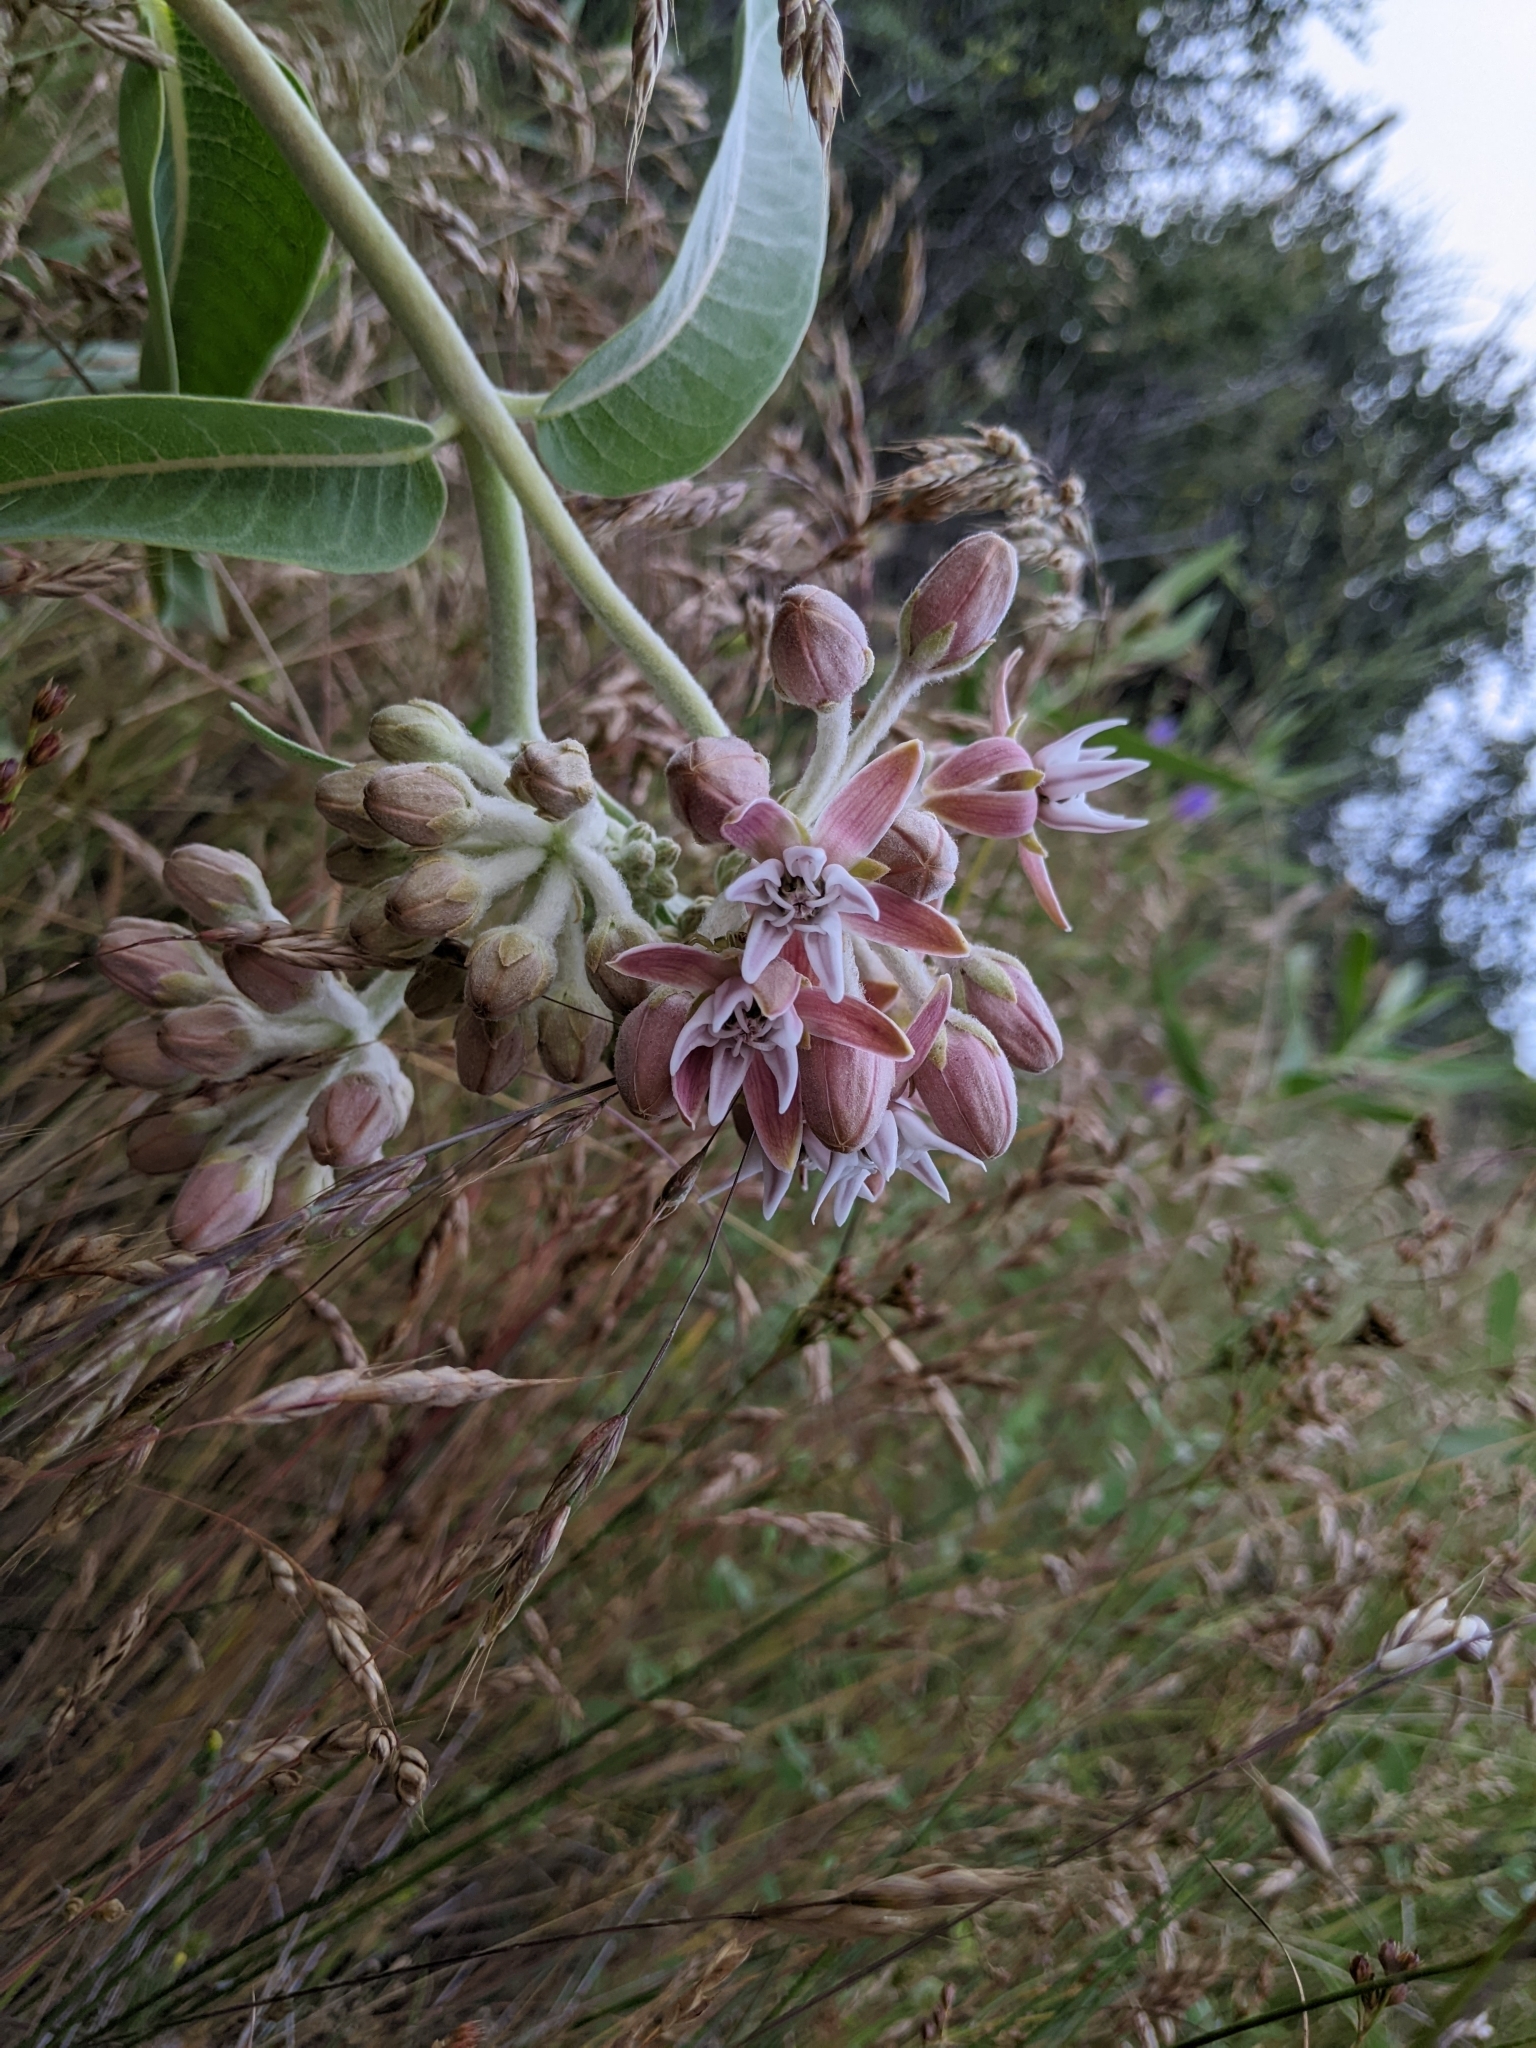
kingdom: Plantae
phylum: Tracheophyta
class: Magnoliopsida
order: Gentianales
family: Apocynaceae
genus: Asclepias
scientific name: Asclepias speciosa
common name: Showy milkweed
